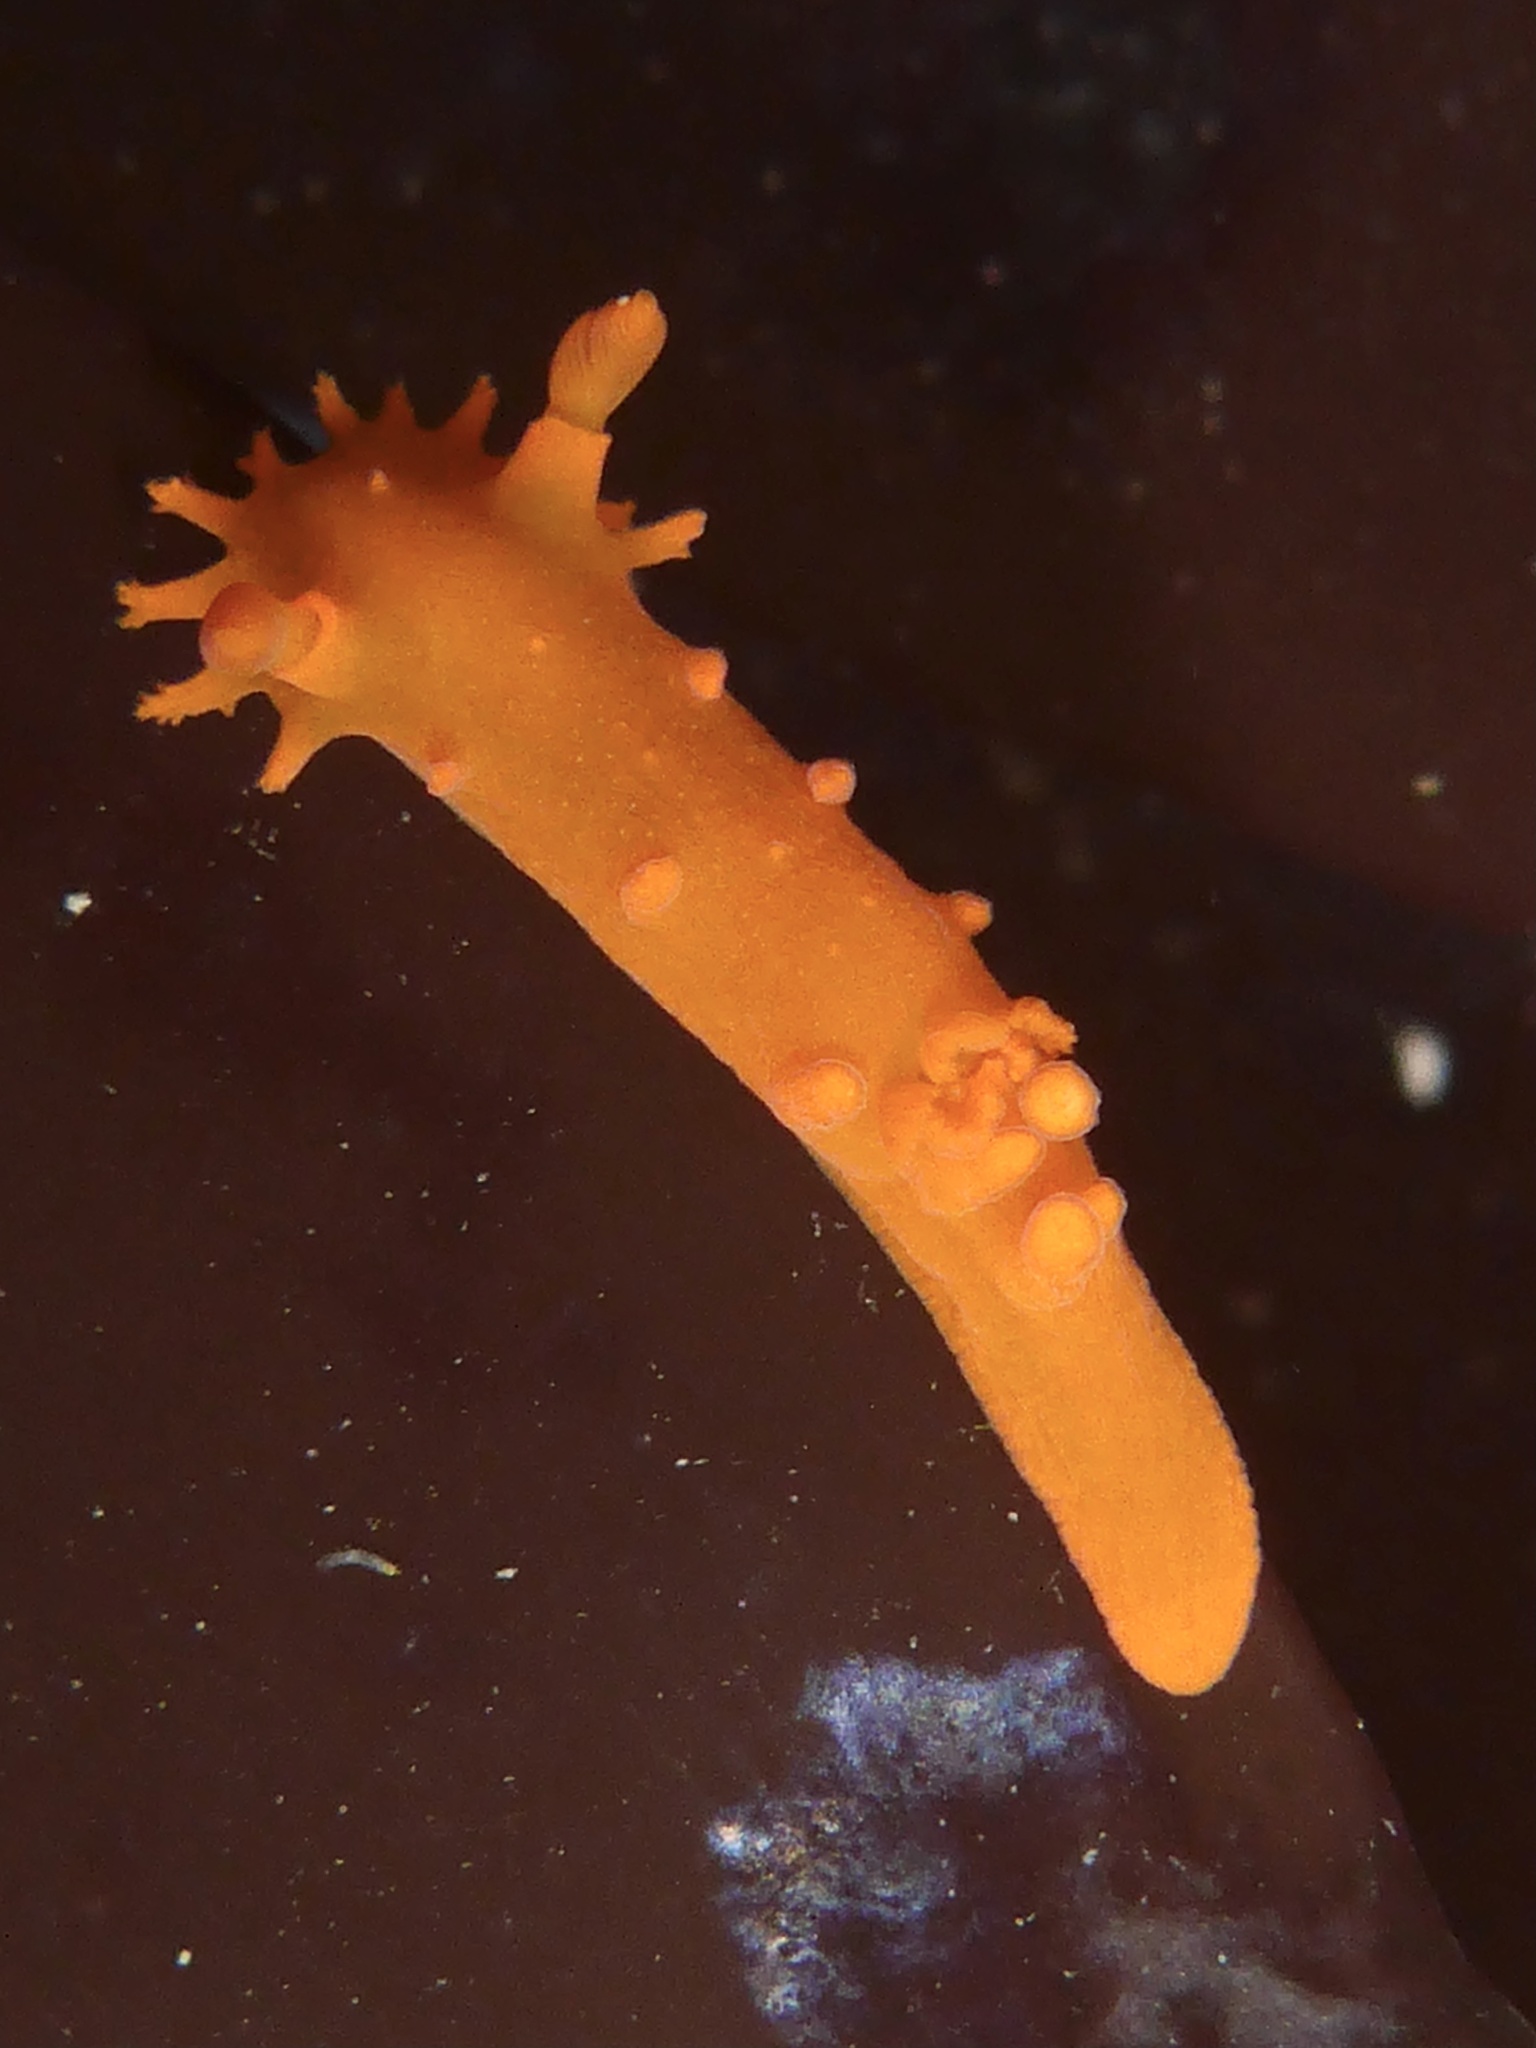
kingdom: Animalia
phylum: Mollusca
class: Gastropoda
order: Nudibranchia
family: Polyceridae
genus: Triopha
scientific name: Triopha maculata
